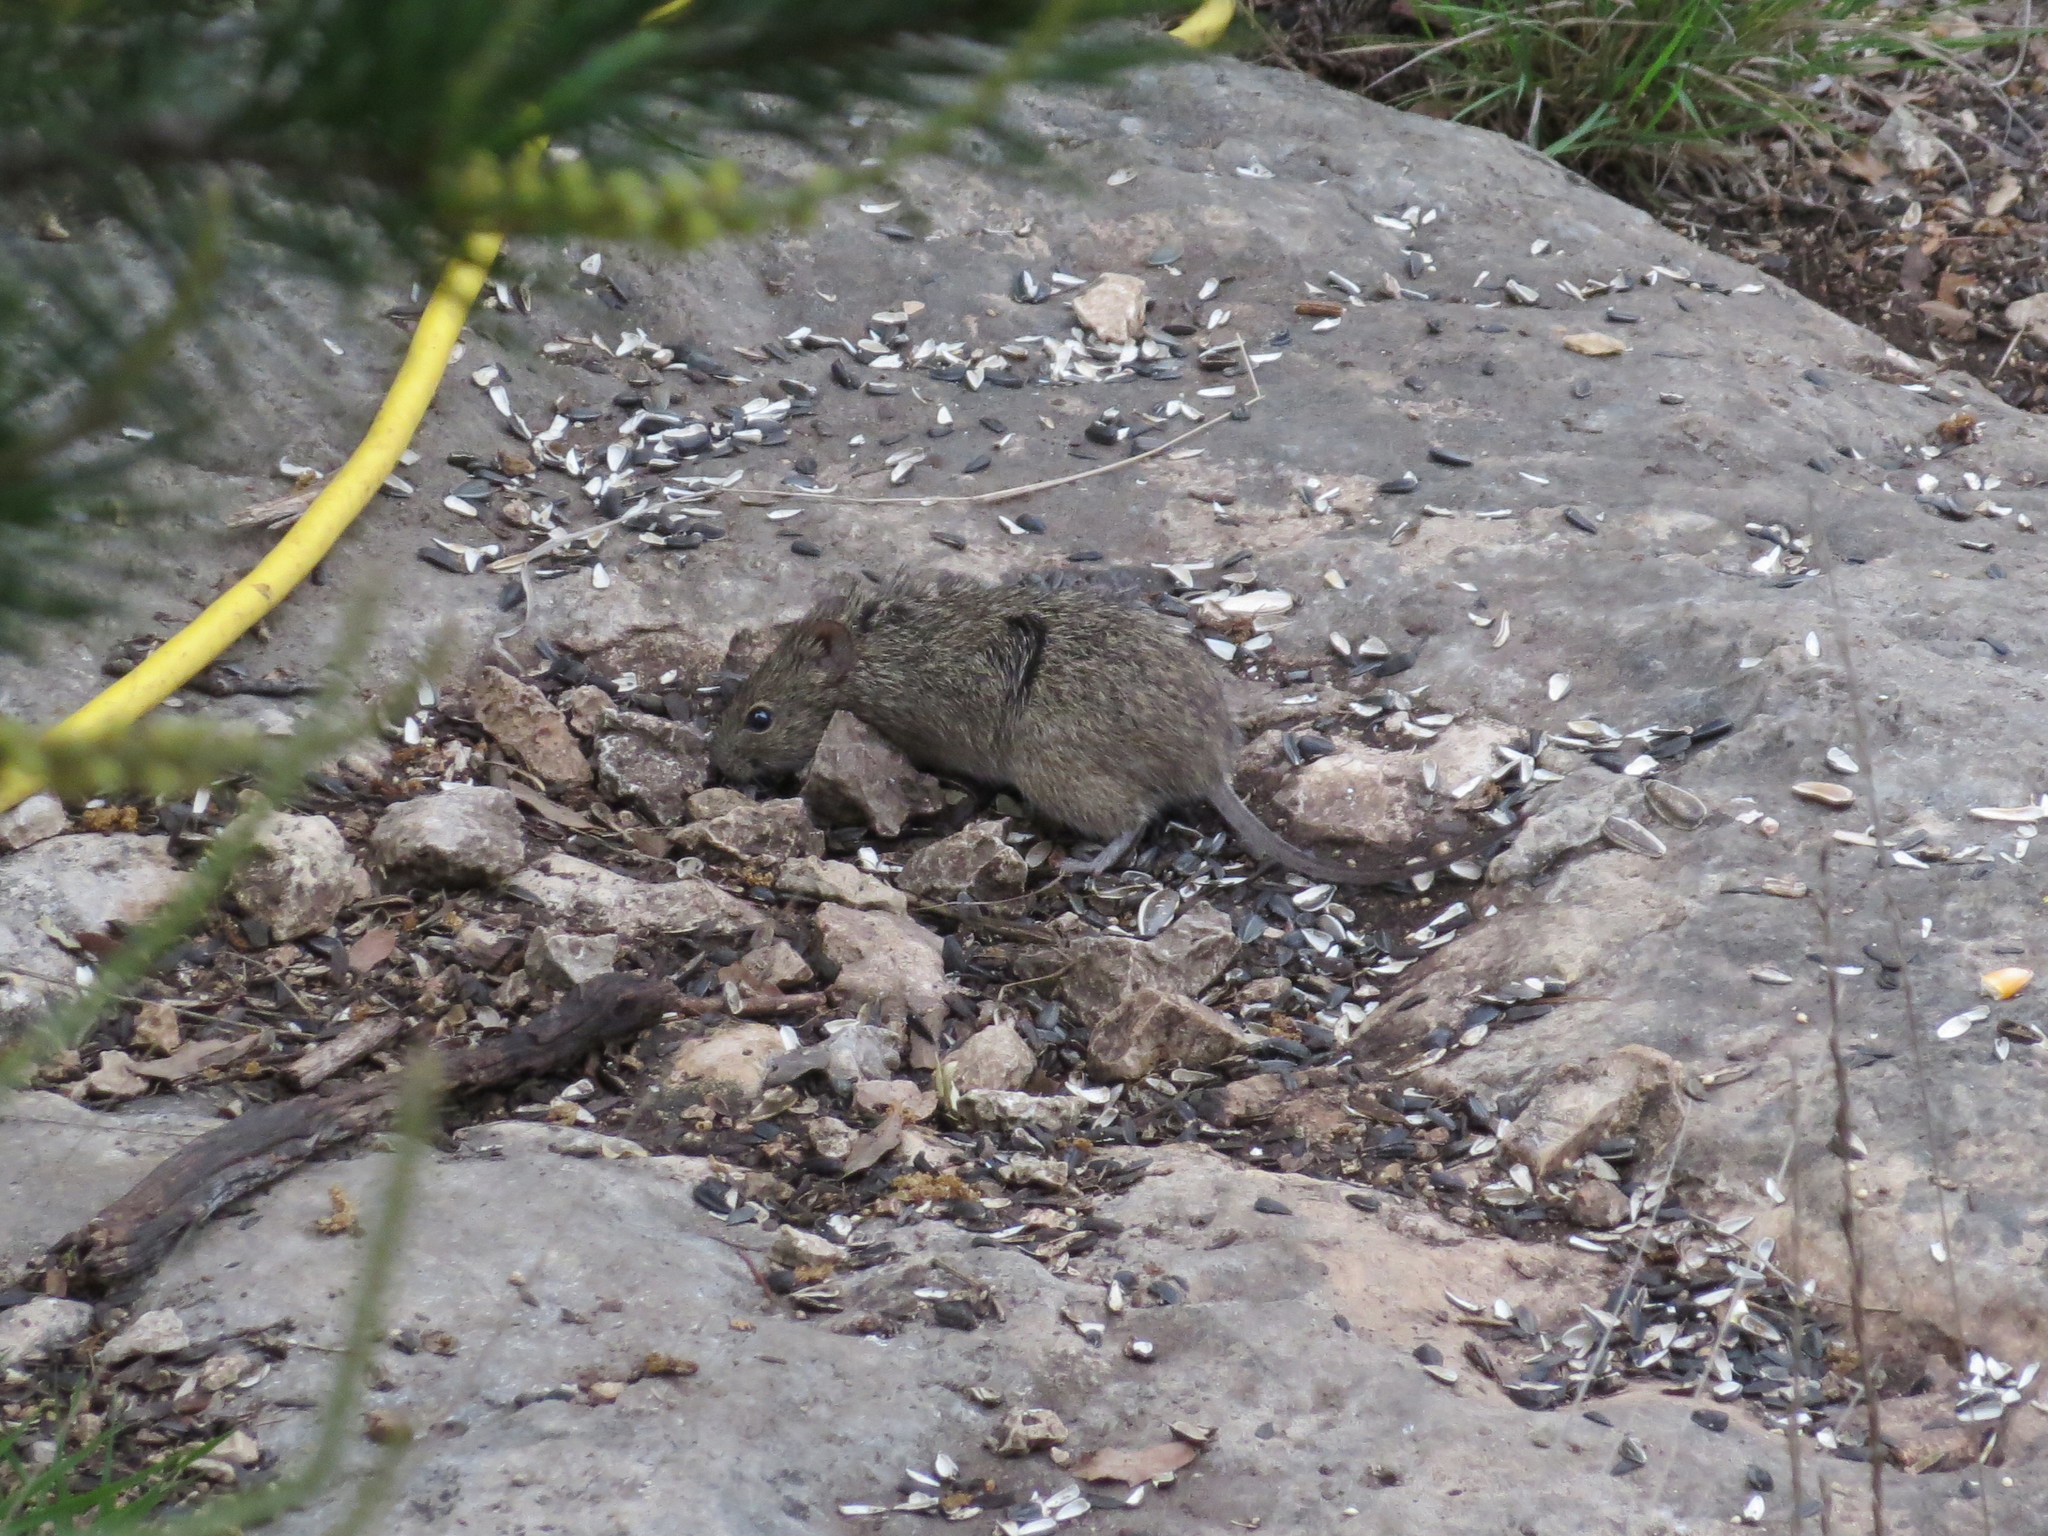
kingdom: Animalia
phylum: Chordata
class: Mammalia
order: Rodentia
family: Cricetidae
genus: Sigmodon
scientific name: Sigmodon hispidus
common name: Hispid cotton rat
